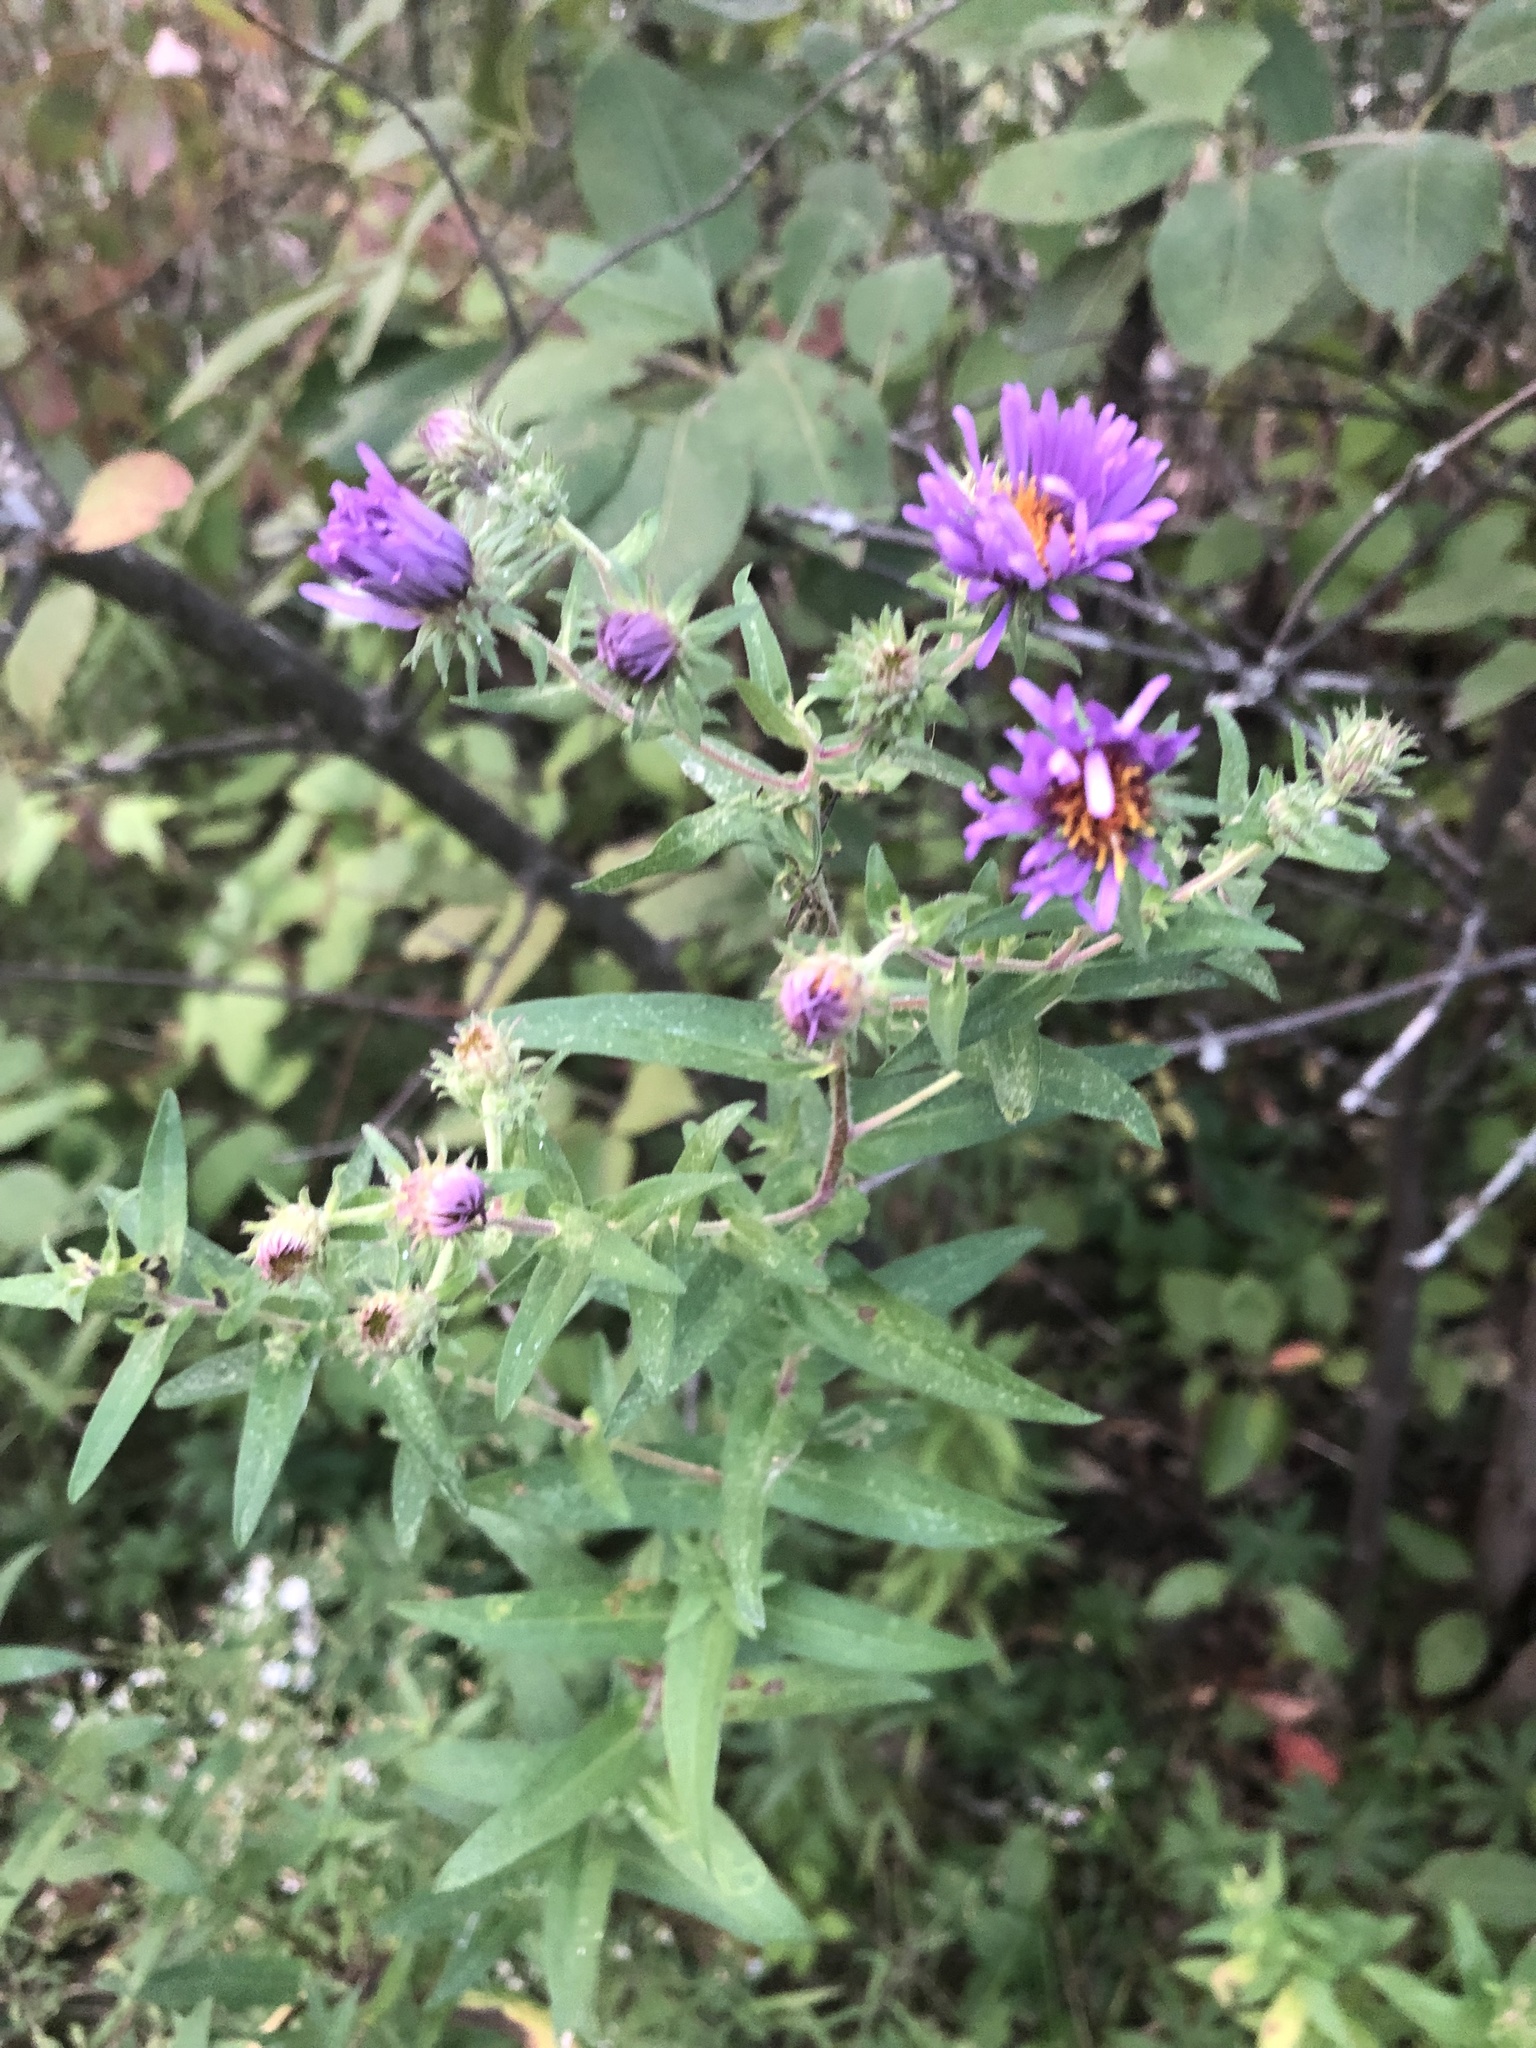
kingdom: Plantae
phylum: Tracheophyta
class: Magnoliopsida
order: Asterales
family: Asteraceae
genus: Symphyotrichum
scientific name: Symphyotrichum novae-angliae
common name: Michaelmas daisy
